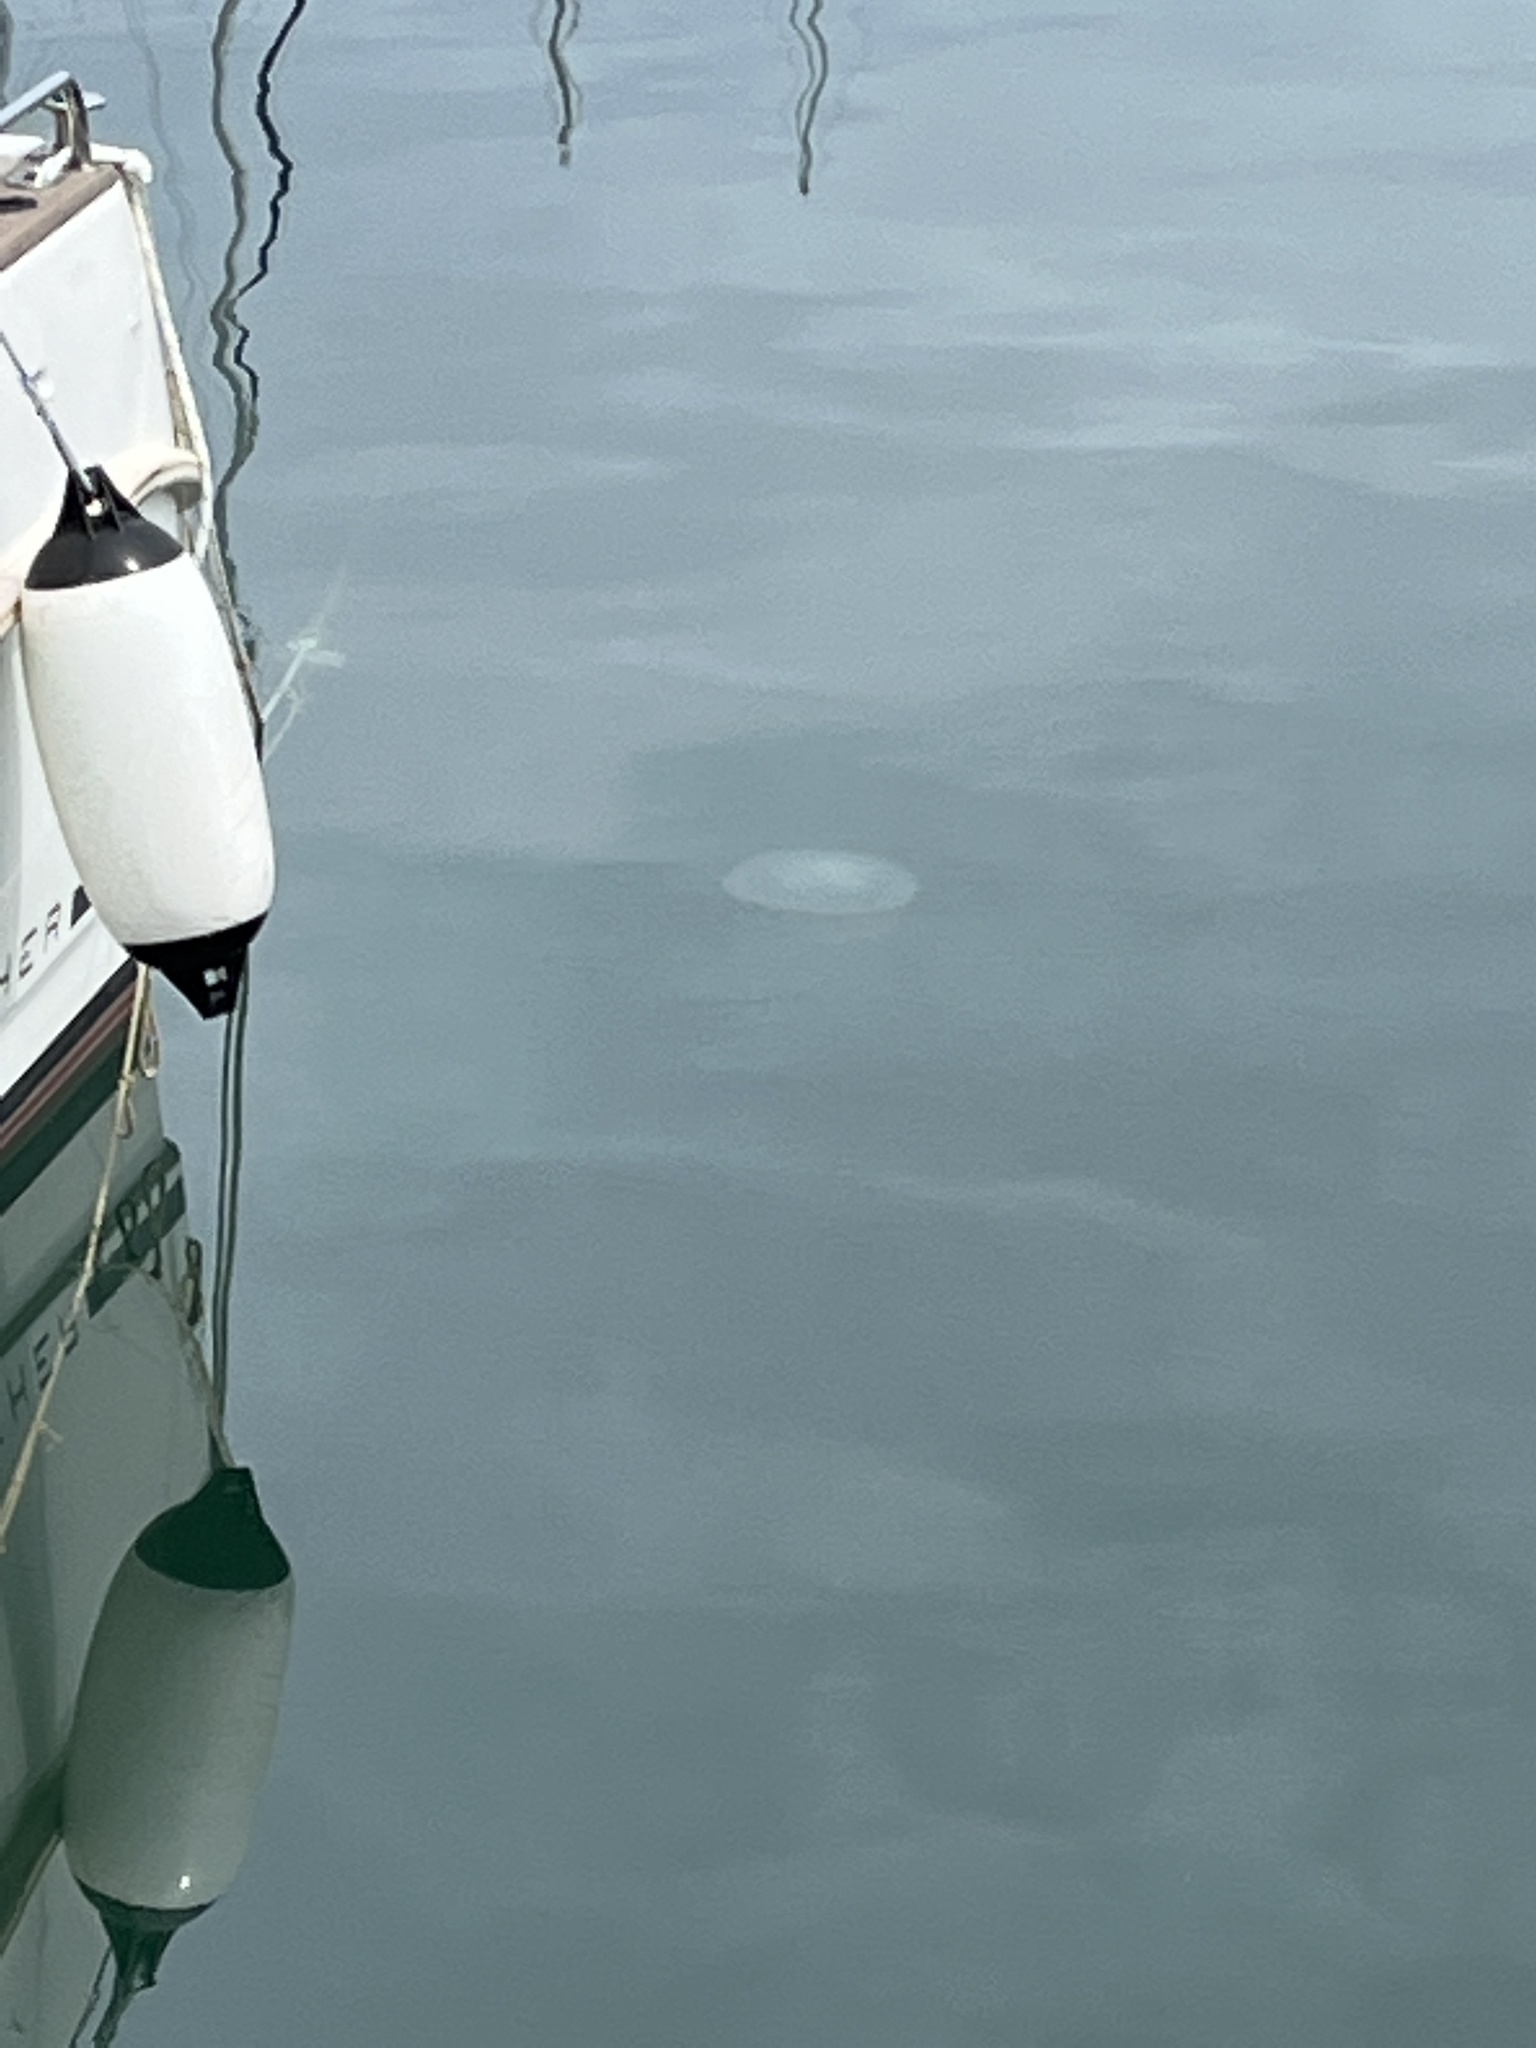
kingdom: Animalia
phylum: Cnidaria
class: Scyphozoa
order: Rhizostomeae
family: Rhizostomatidae
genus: Rhizostoma
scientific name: Rhizostoma pulmo
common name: Barrel jellyfish
